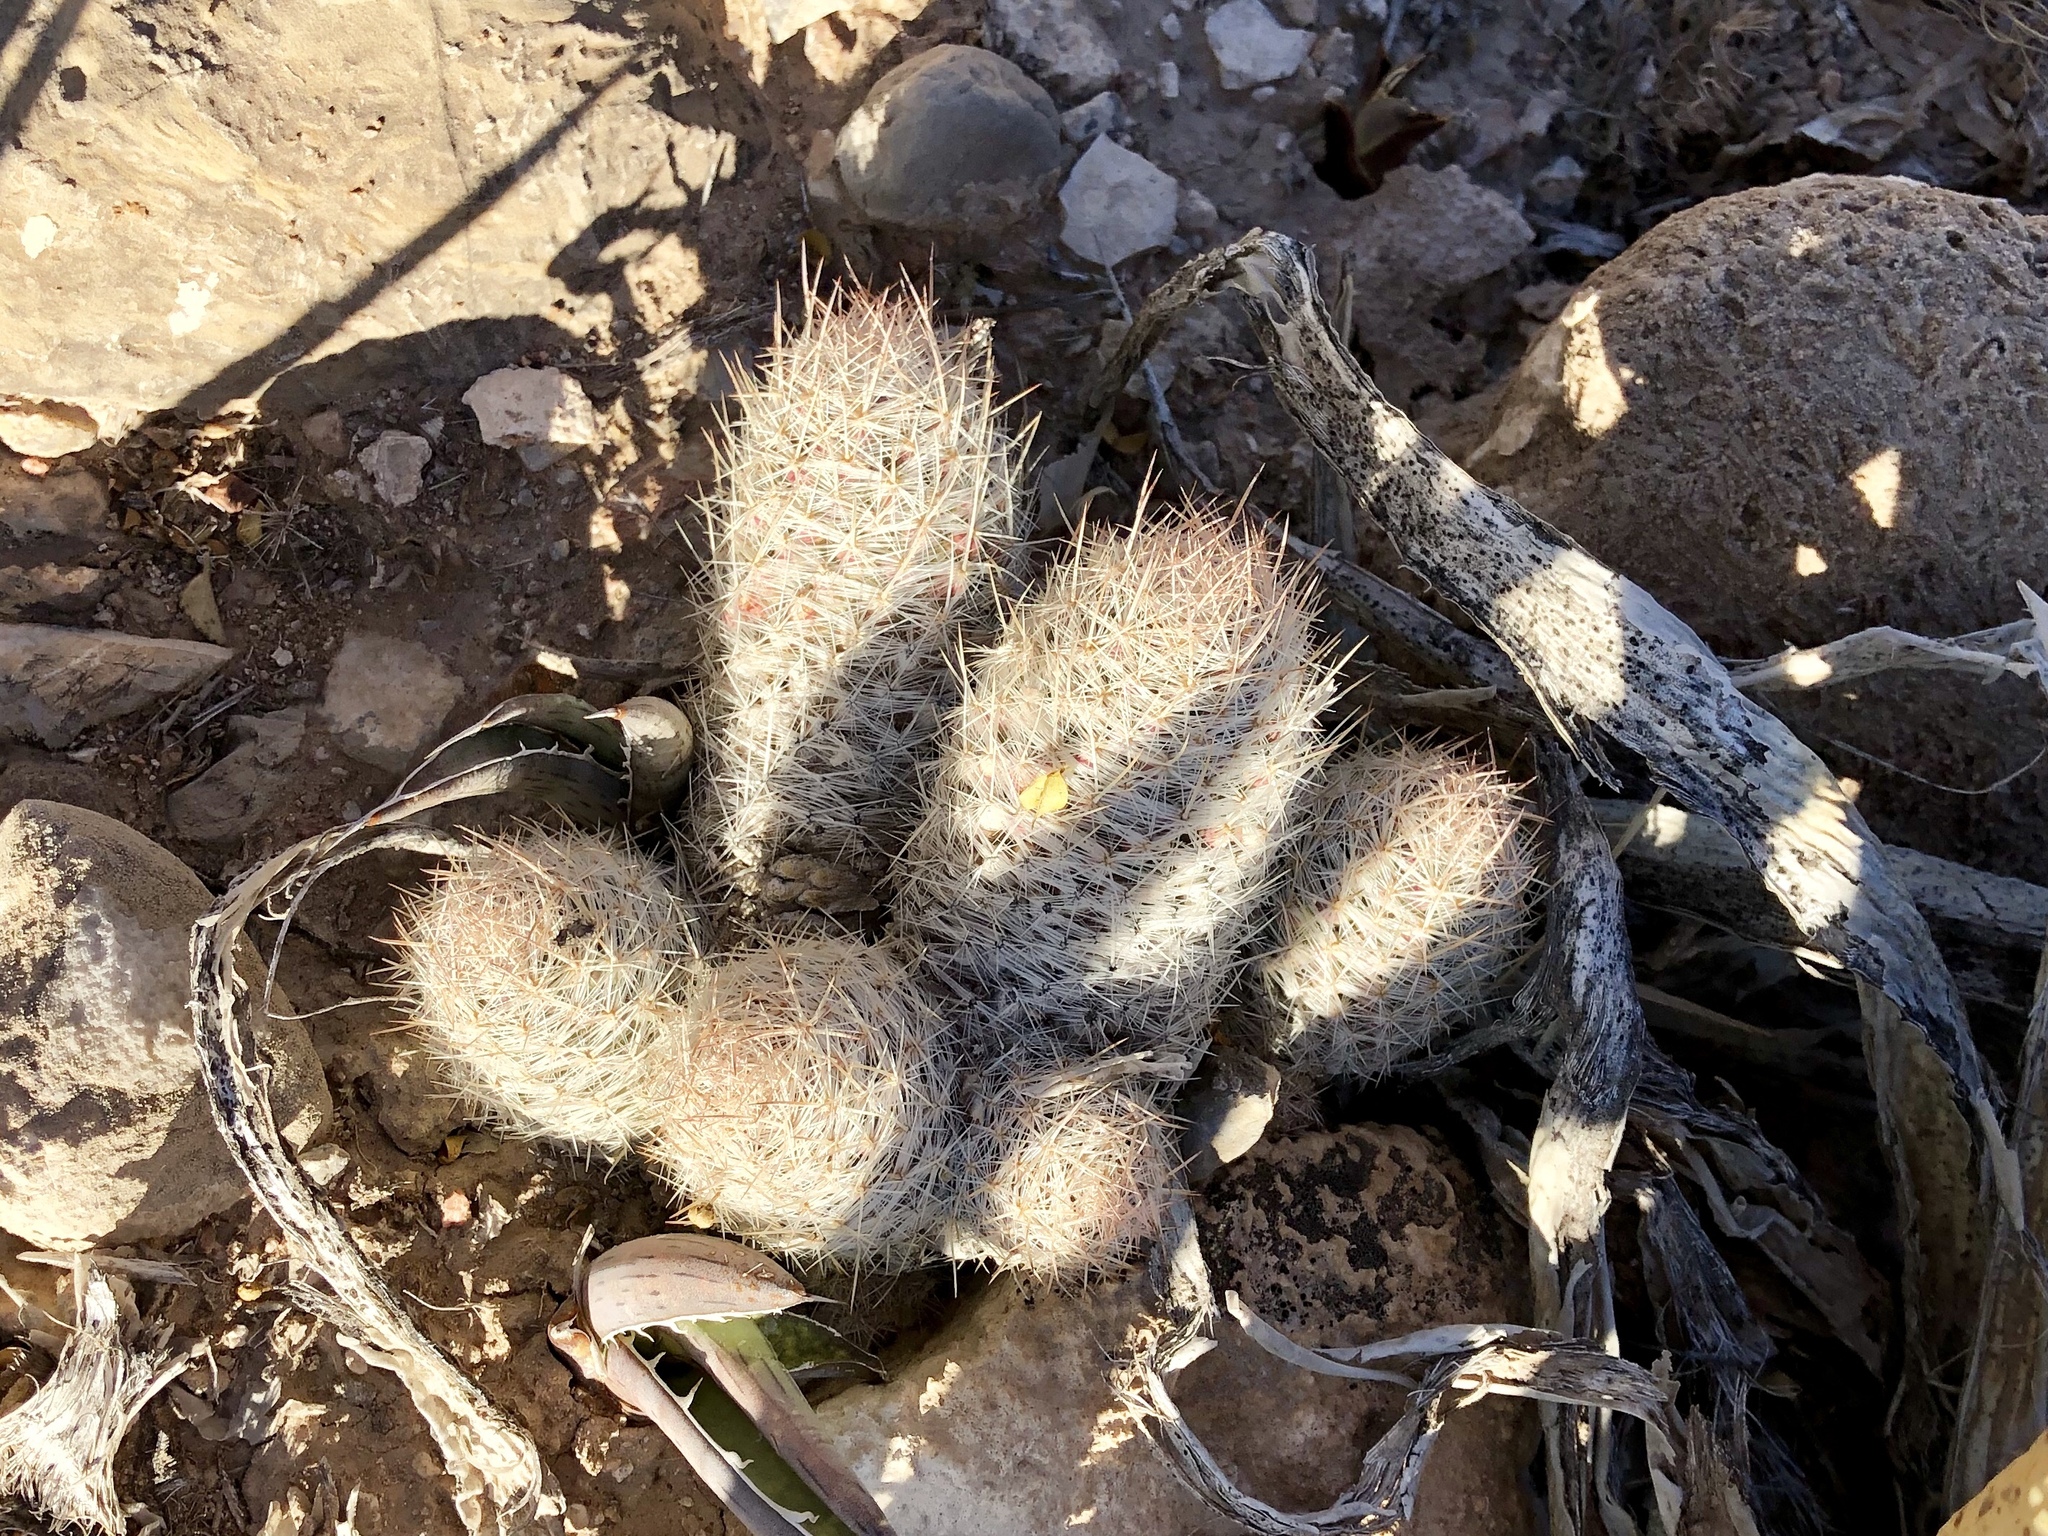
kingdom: Plantae
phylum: Tracheophyta
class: Magnoliopsida
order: Caryophyllales
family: Cactaceae
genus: Pelecyphora
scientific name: Pelecyphora tuberculosa
